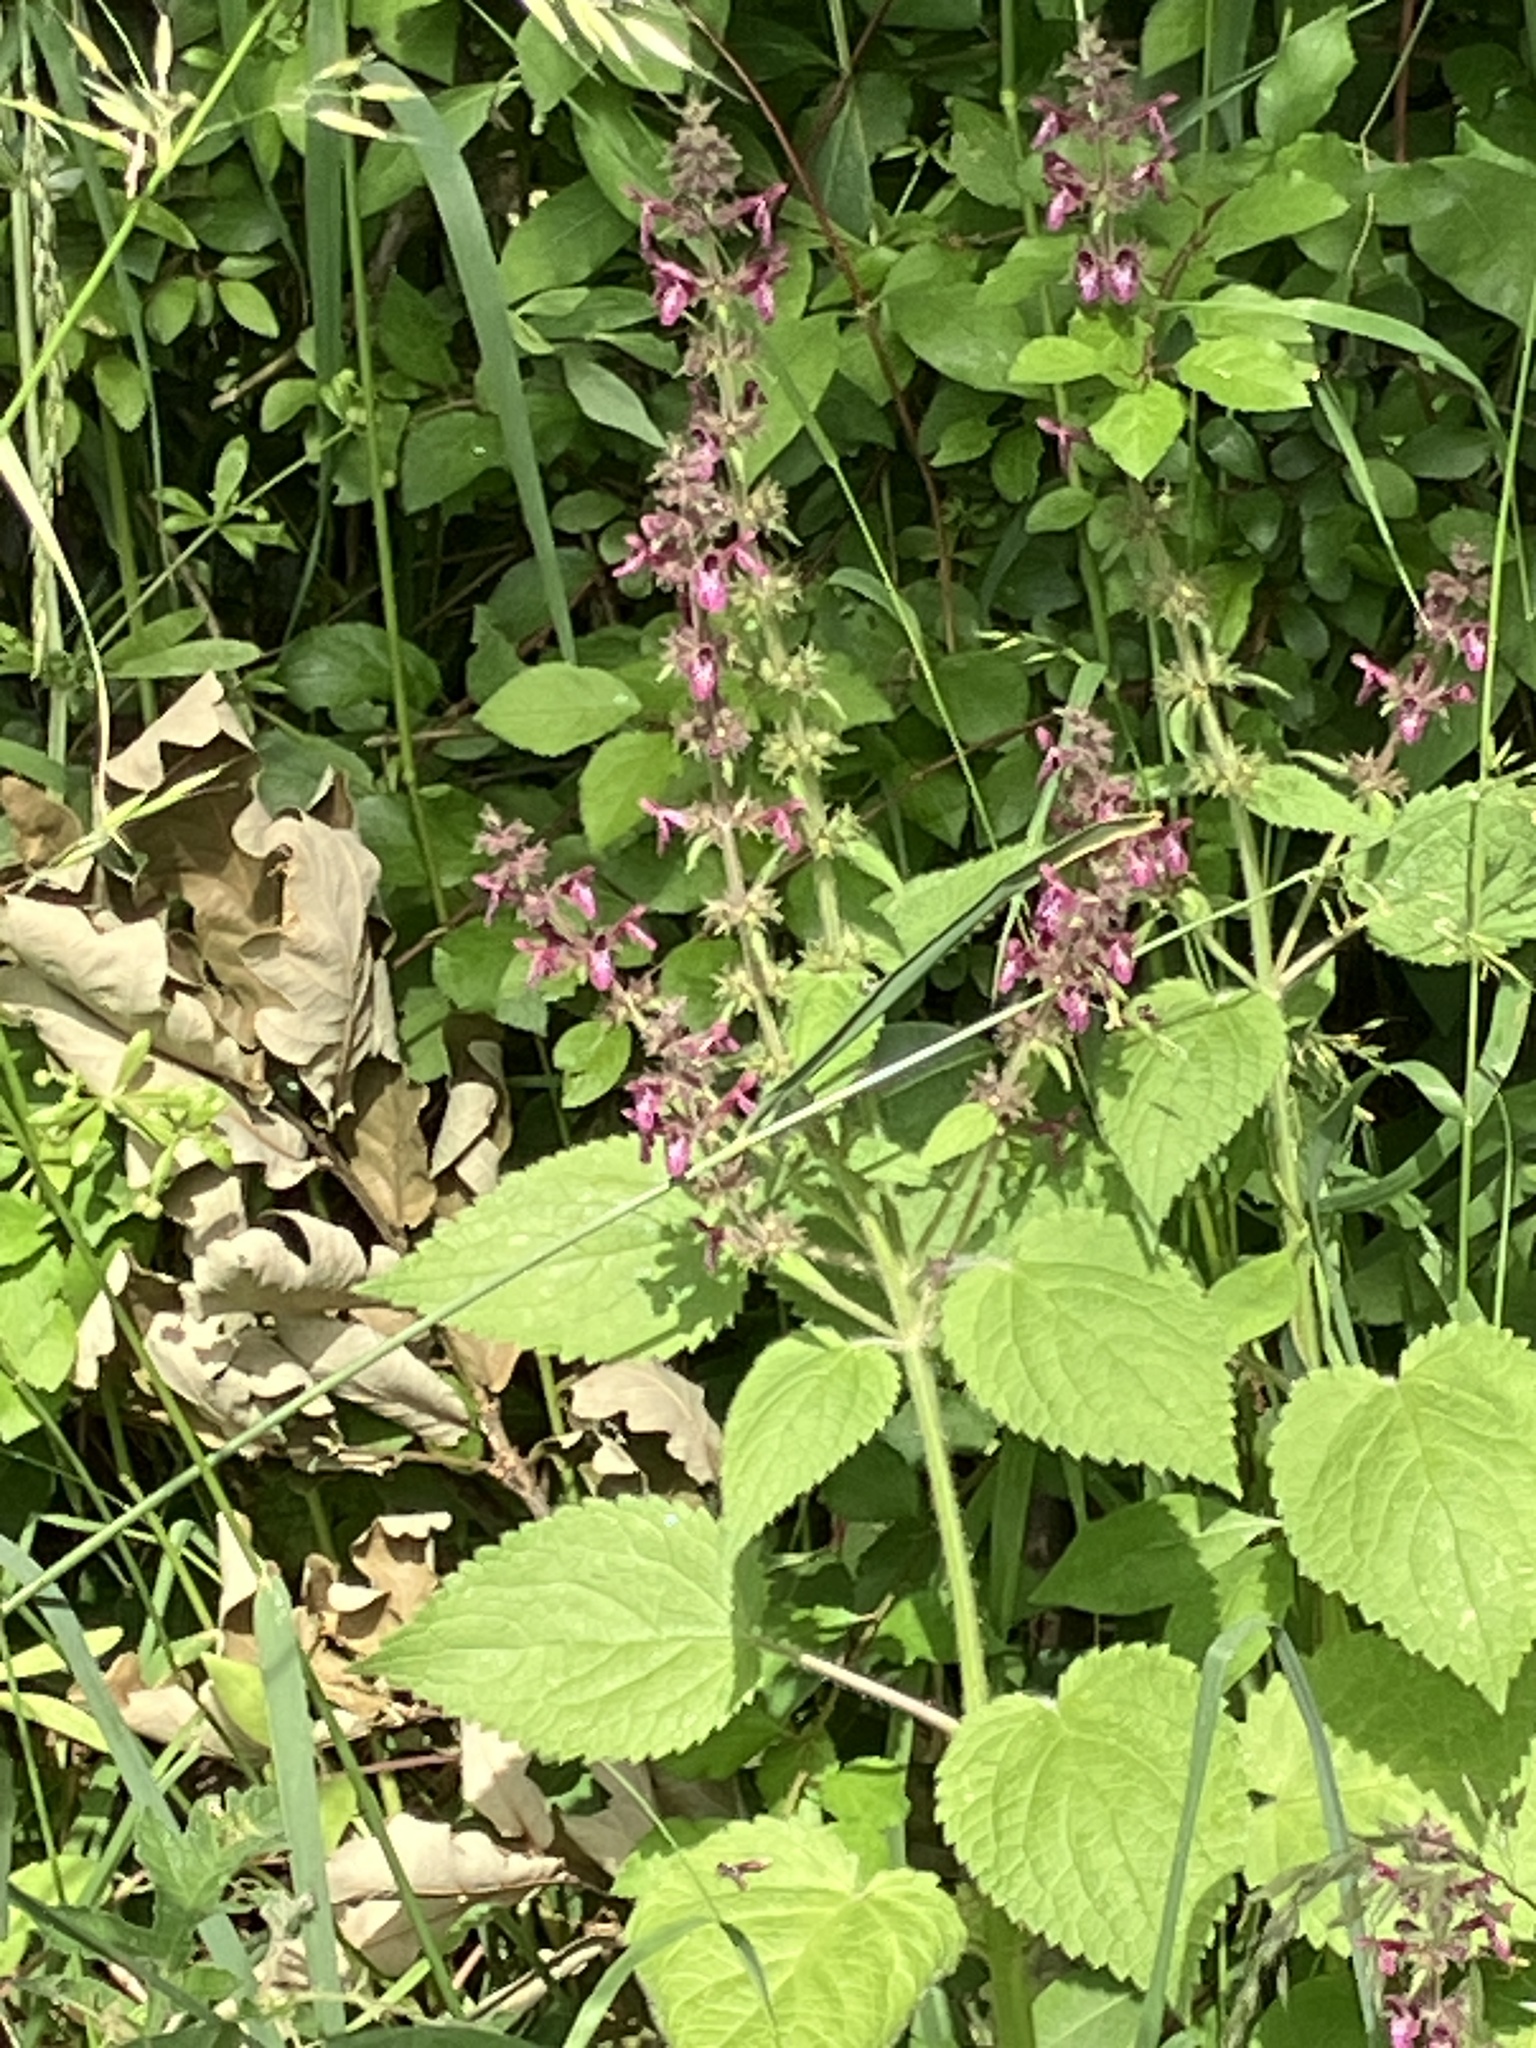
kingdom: Plantae
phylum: Tracheophyta
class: Magnoliopsida
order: Lamiales
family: Lamiaceae
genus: Stachys
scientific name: Stachys sylvatica
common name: Hedge woundwort
